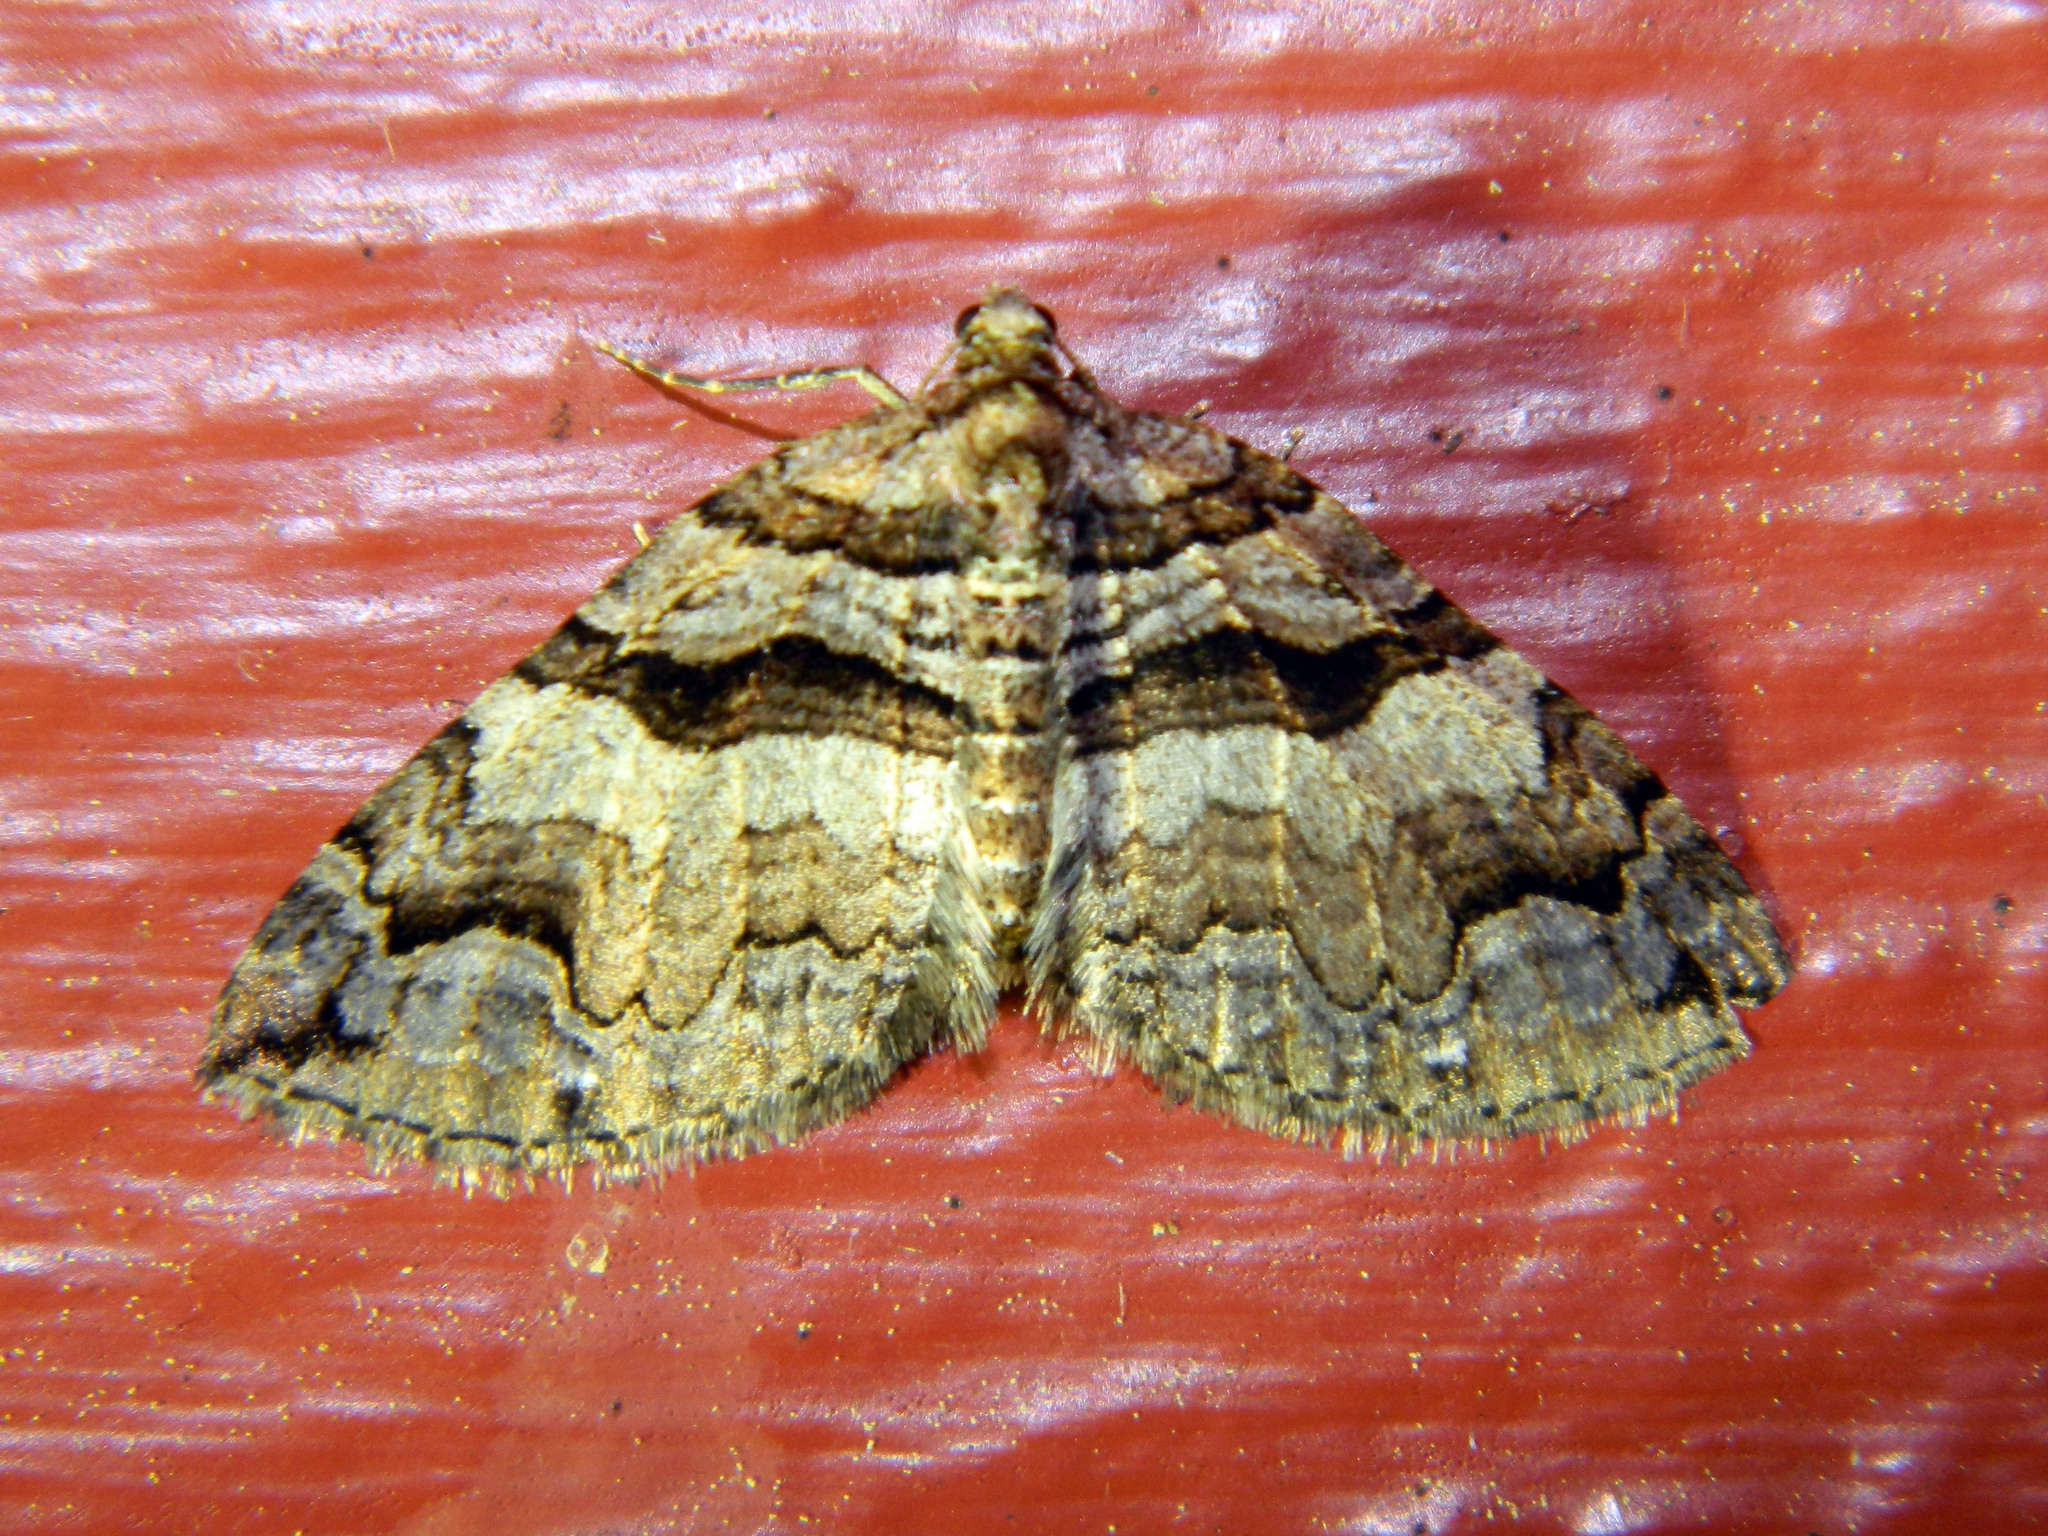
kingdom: Animalia
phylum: Arthropoda
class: Insecta
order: Lepidoptera
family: Geometridae
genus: Anticlea
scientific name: Anticlea vasiliata
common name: Variable carpet
